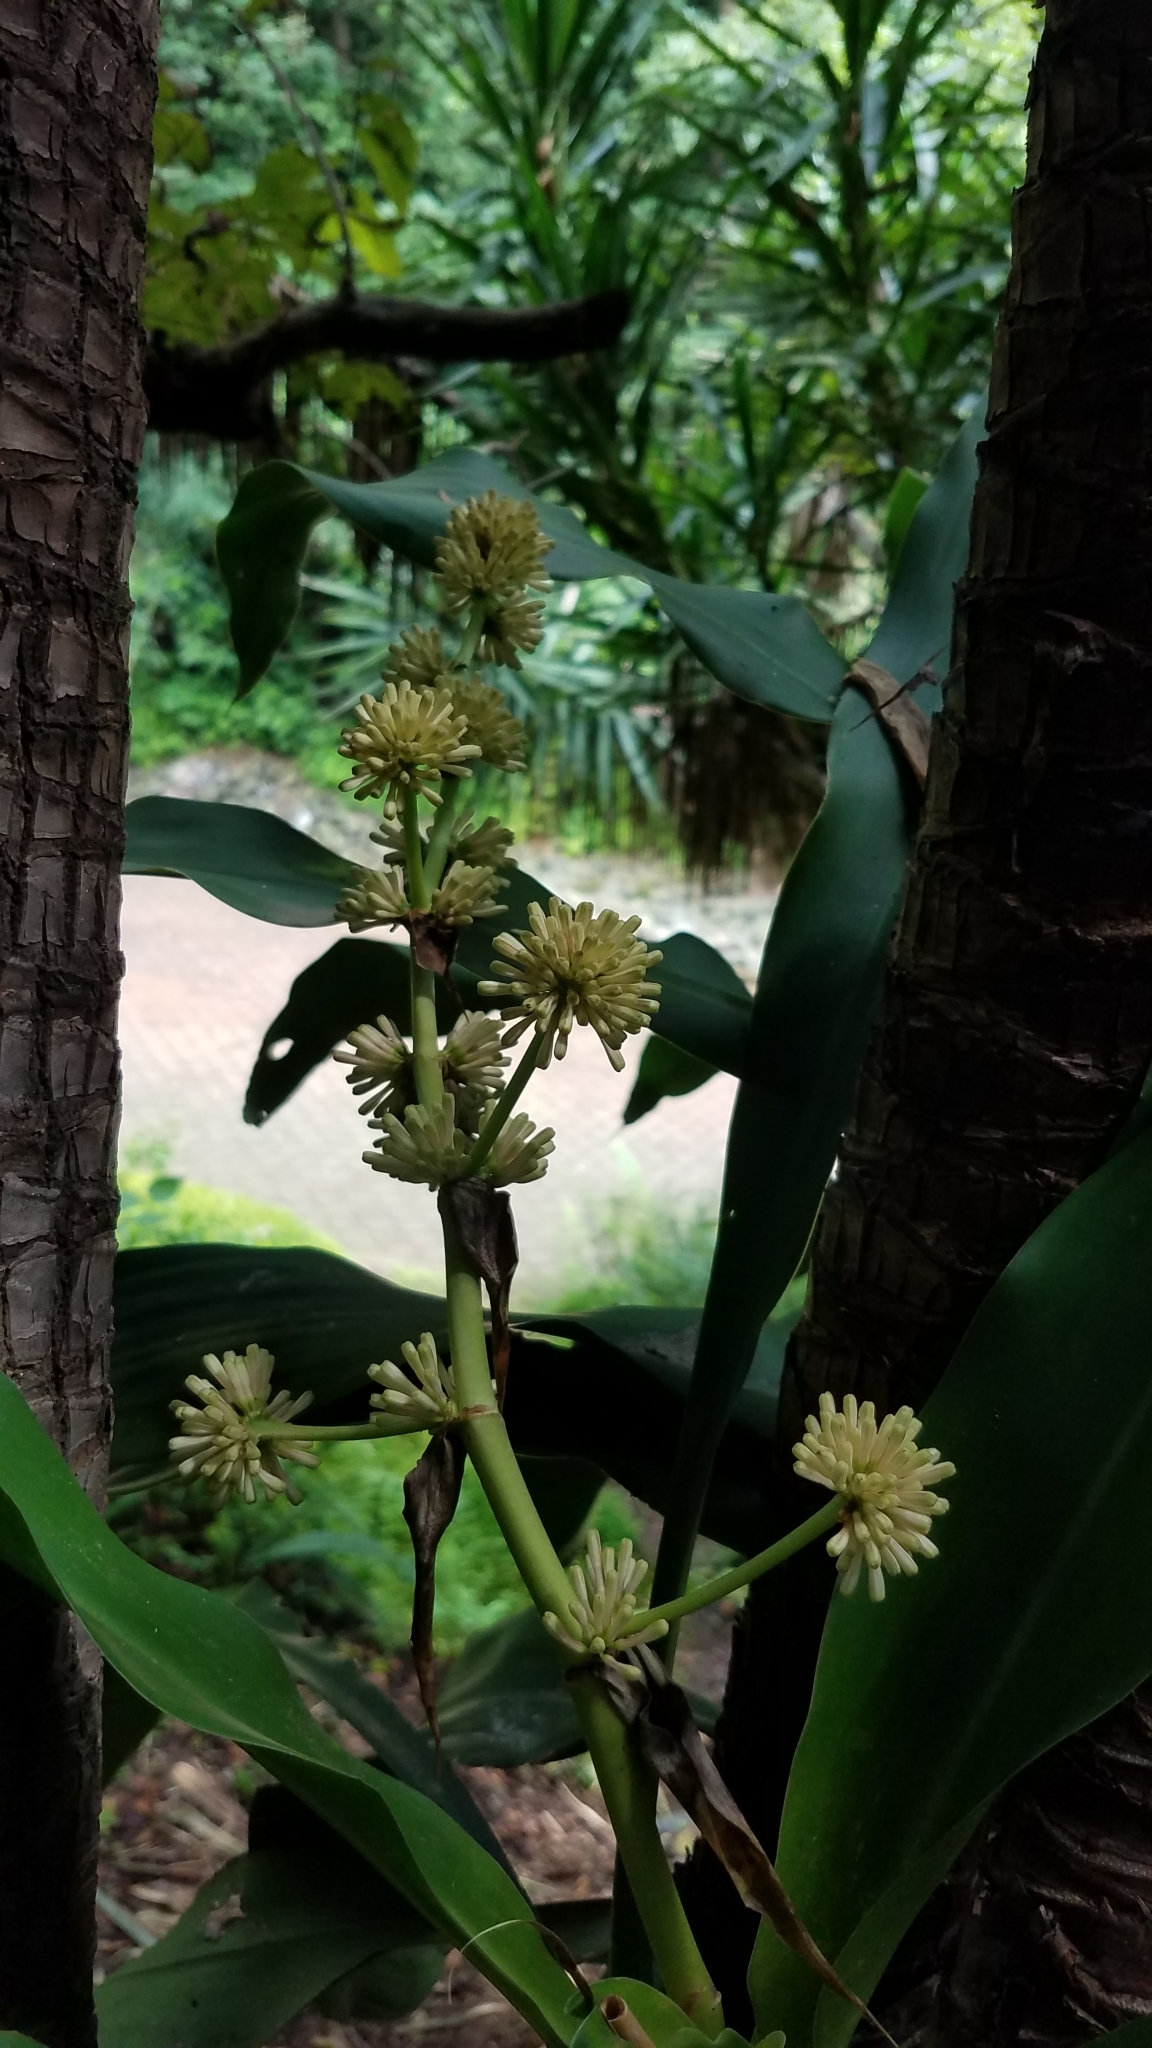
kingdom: Plantae
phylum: Tracheophyta
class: Liliopsida
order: Asparagales
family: Asparagaceae
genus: Dracaena
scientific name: Dracaena fragrans
